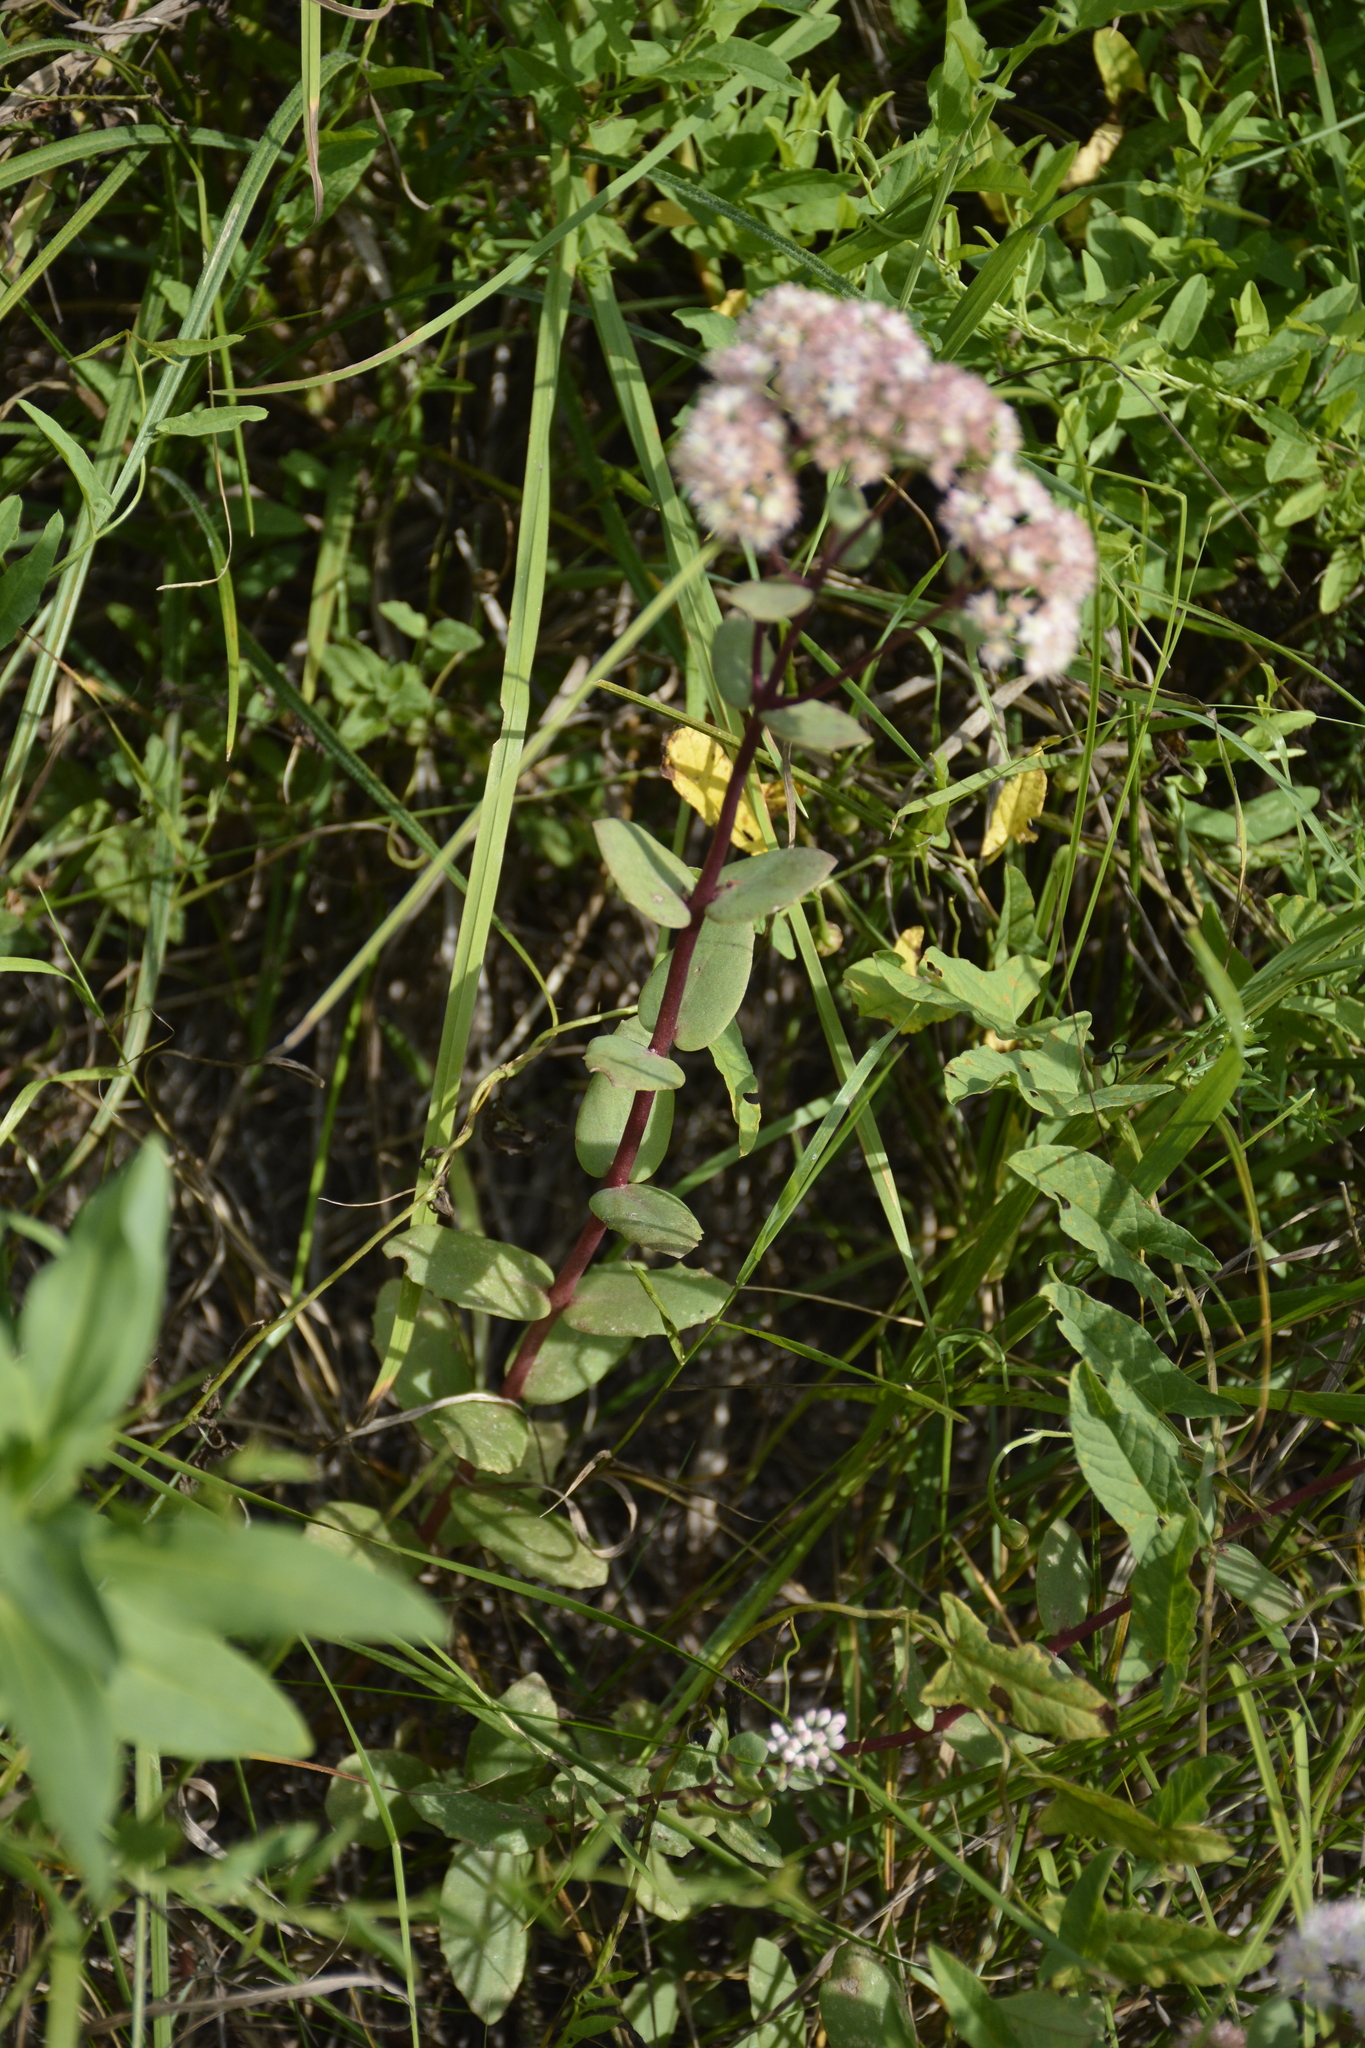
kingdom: Plantae
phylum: Tracheophyta
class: Magnoliopsida
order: Saxifragales
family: Crassulaceae
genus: Hylotelephium
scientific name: Hylotelephium maximum
